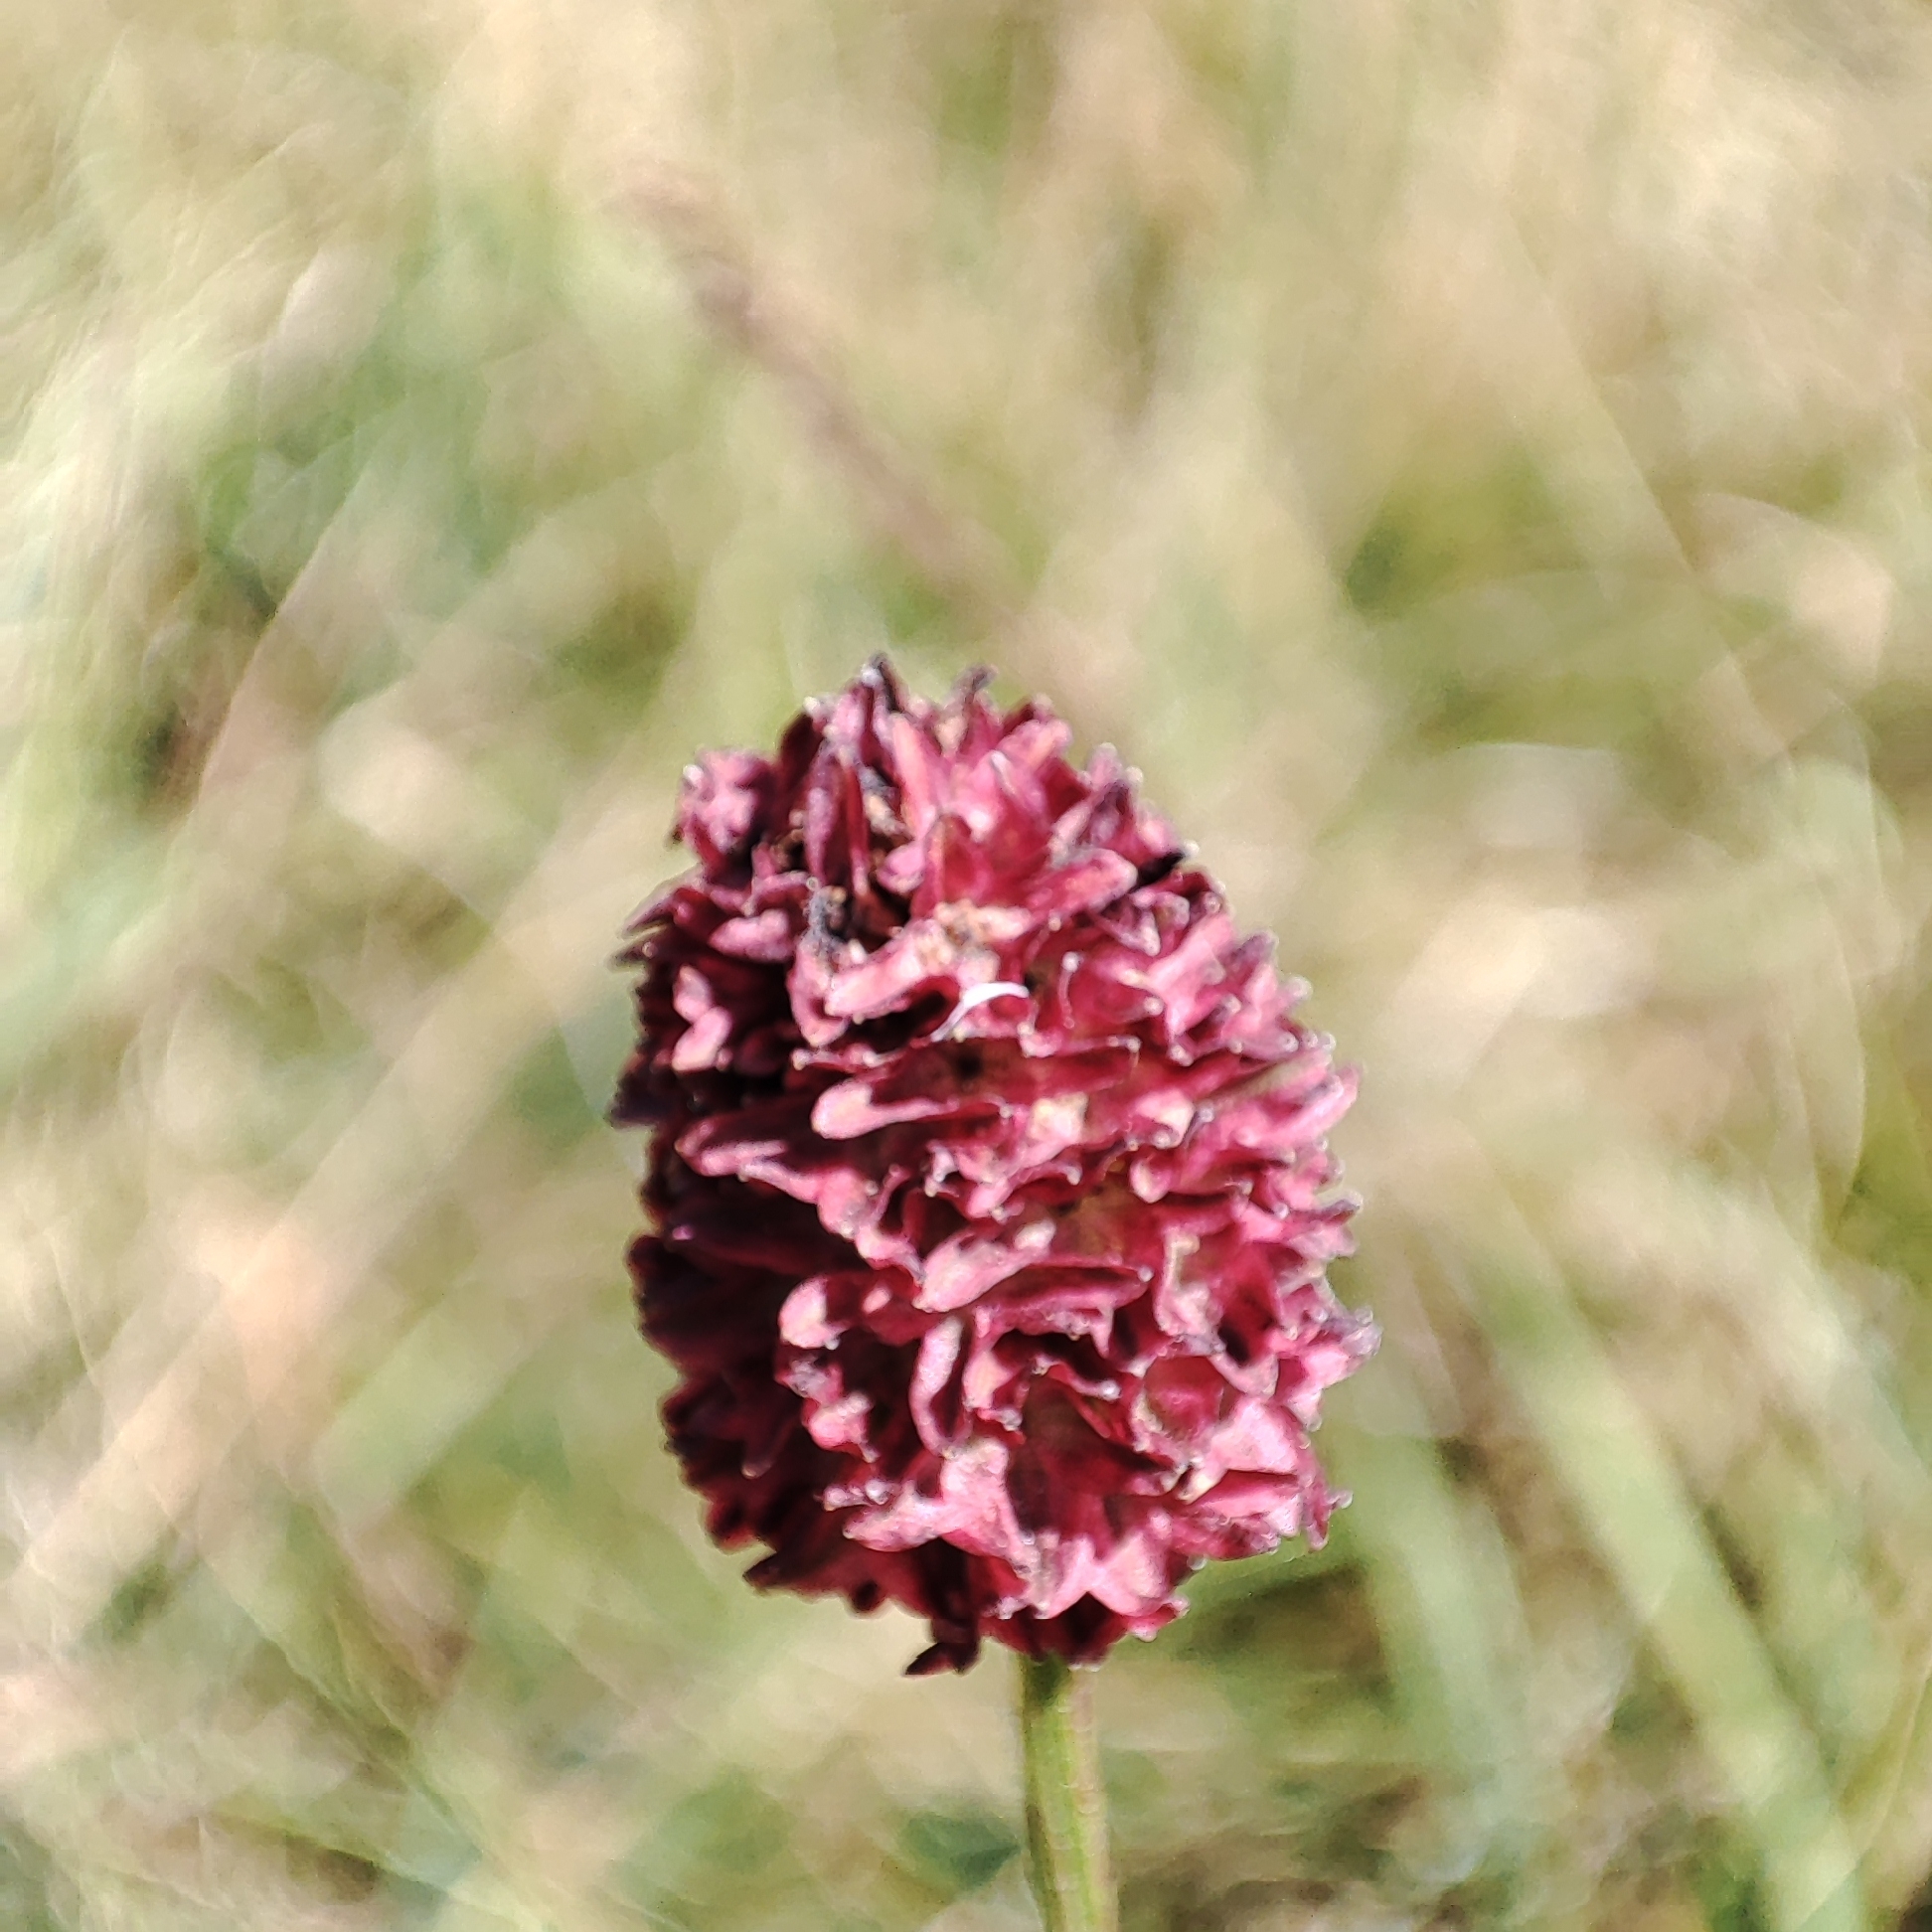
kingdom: Plantae
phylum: Tracheophyta
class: Magnoliopsida
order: Rosales
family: Rosaceae
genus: Sanguisorba
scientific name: Sanguisorba officinalis
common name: Great burnet
